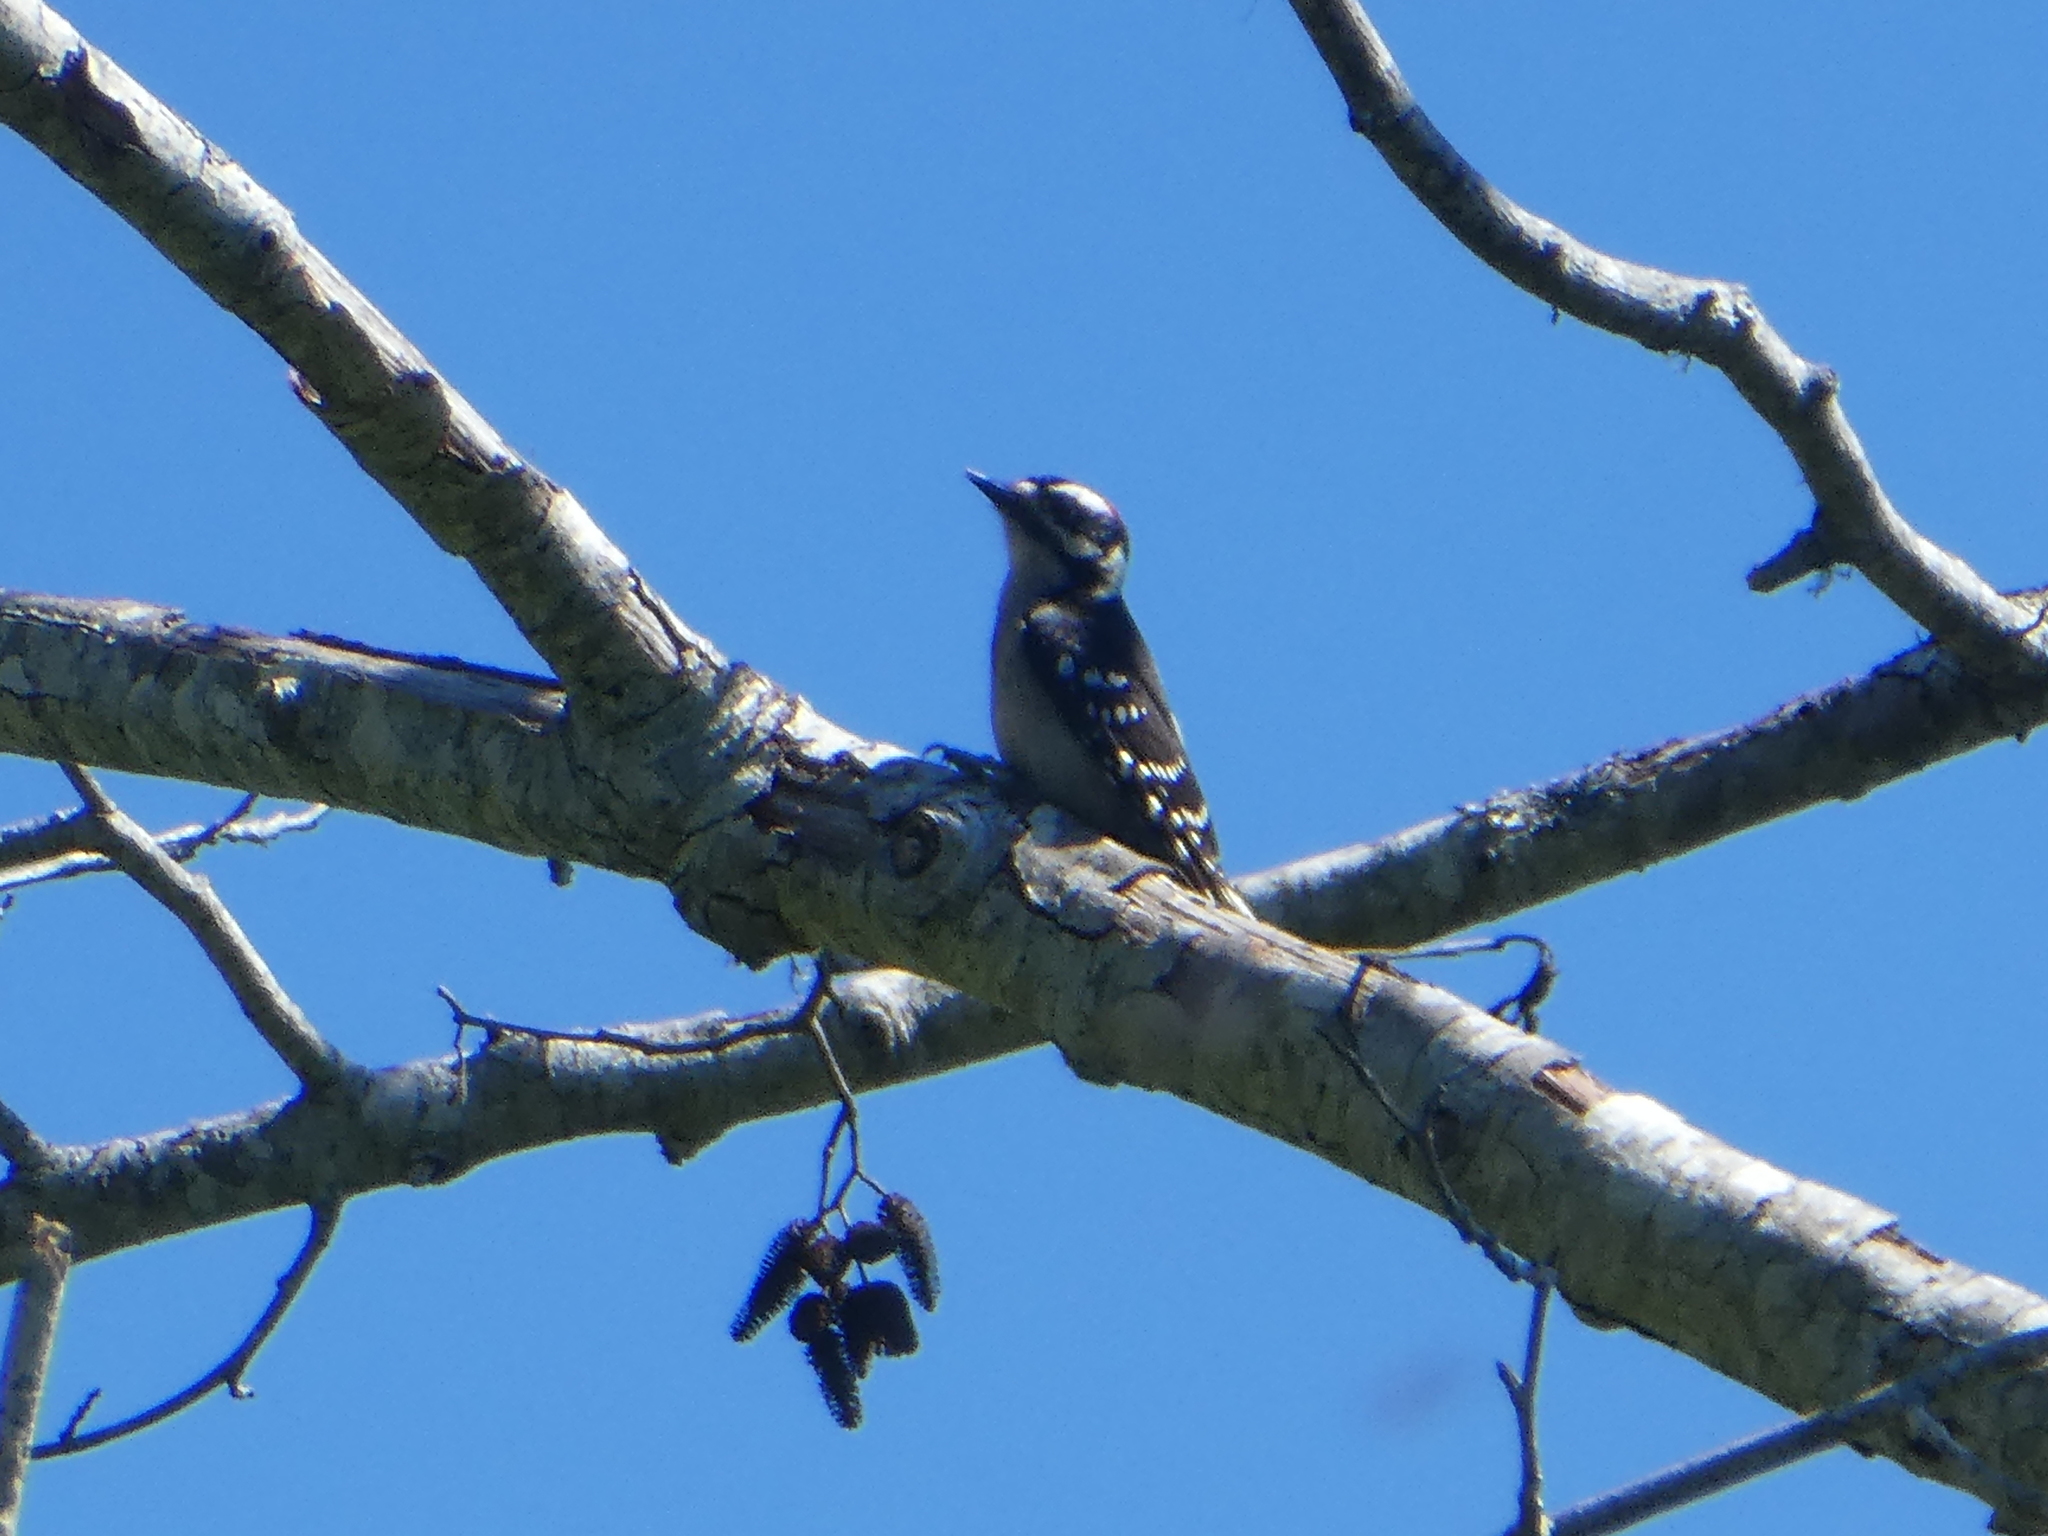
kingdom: Animalia
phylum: Chordata
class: Aves
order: Piciformes
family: Picidae
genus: Dryobates
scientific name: Dryobates pubescens
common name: Downy woodpecker
